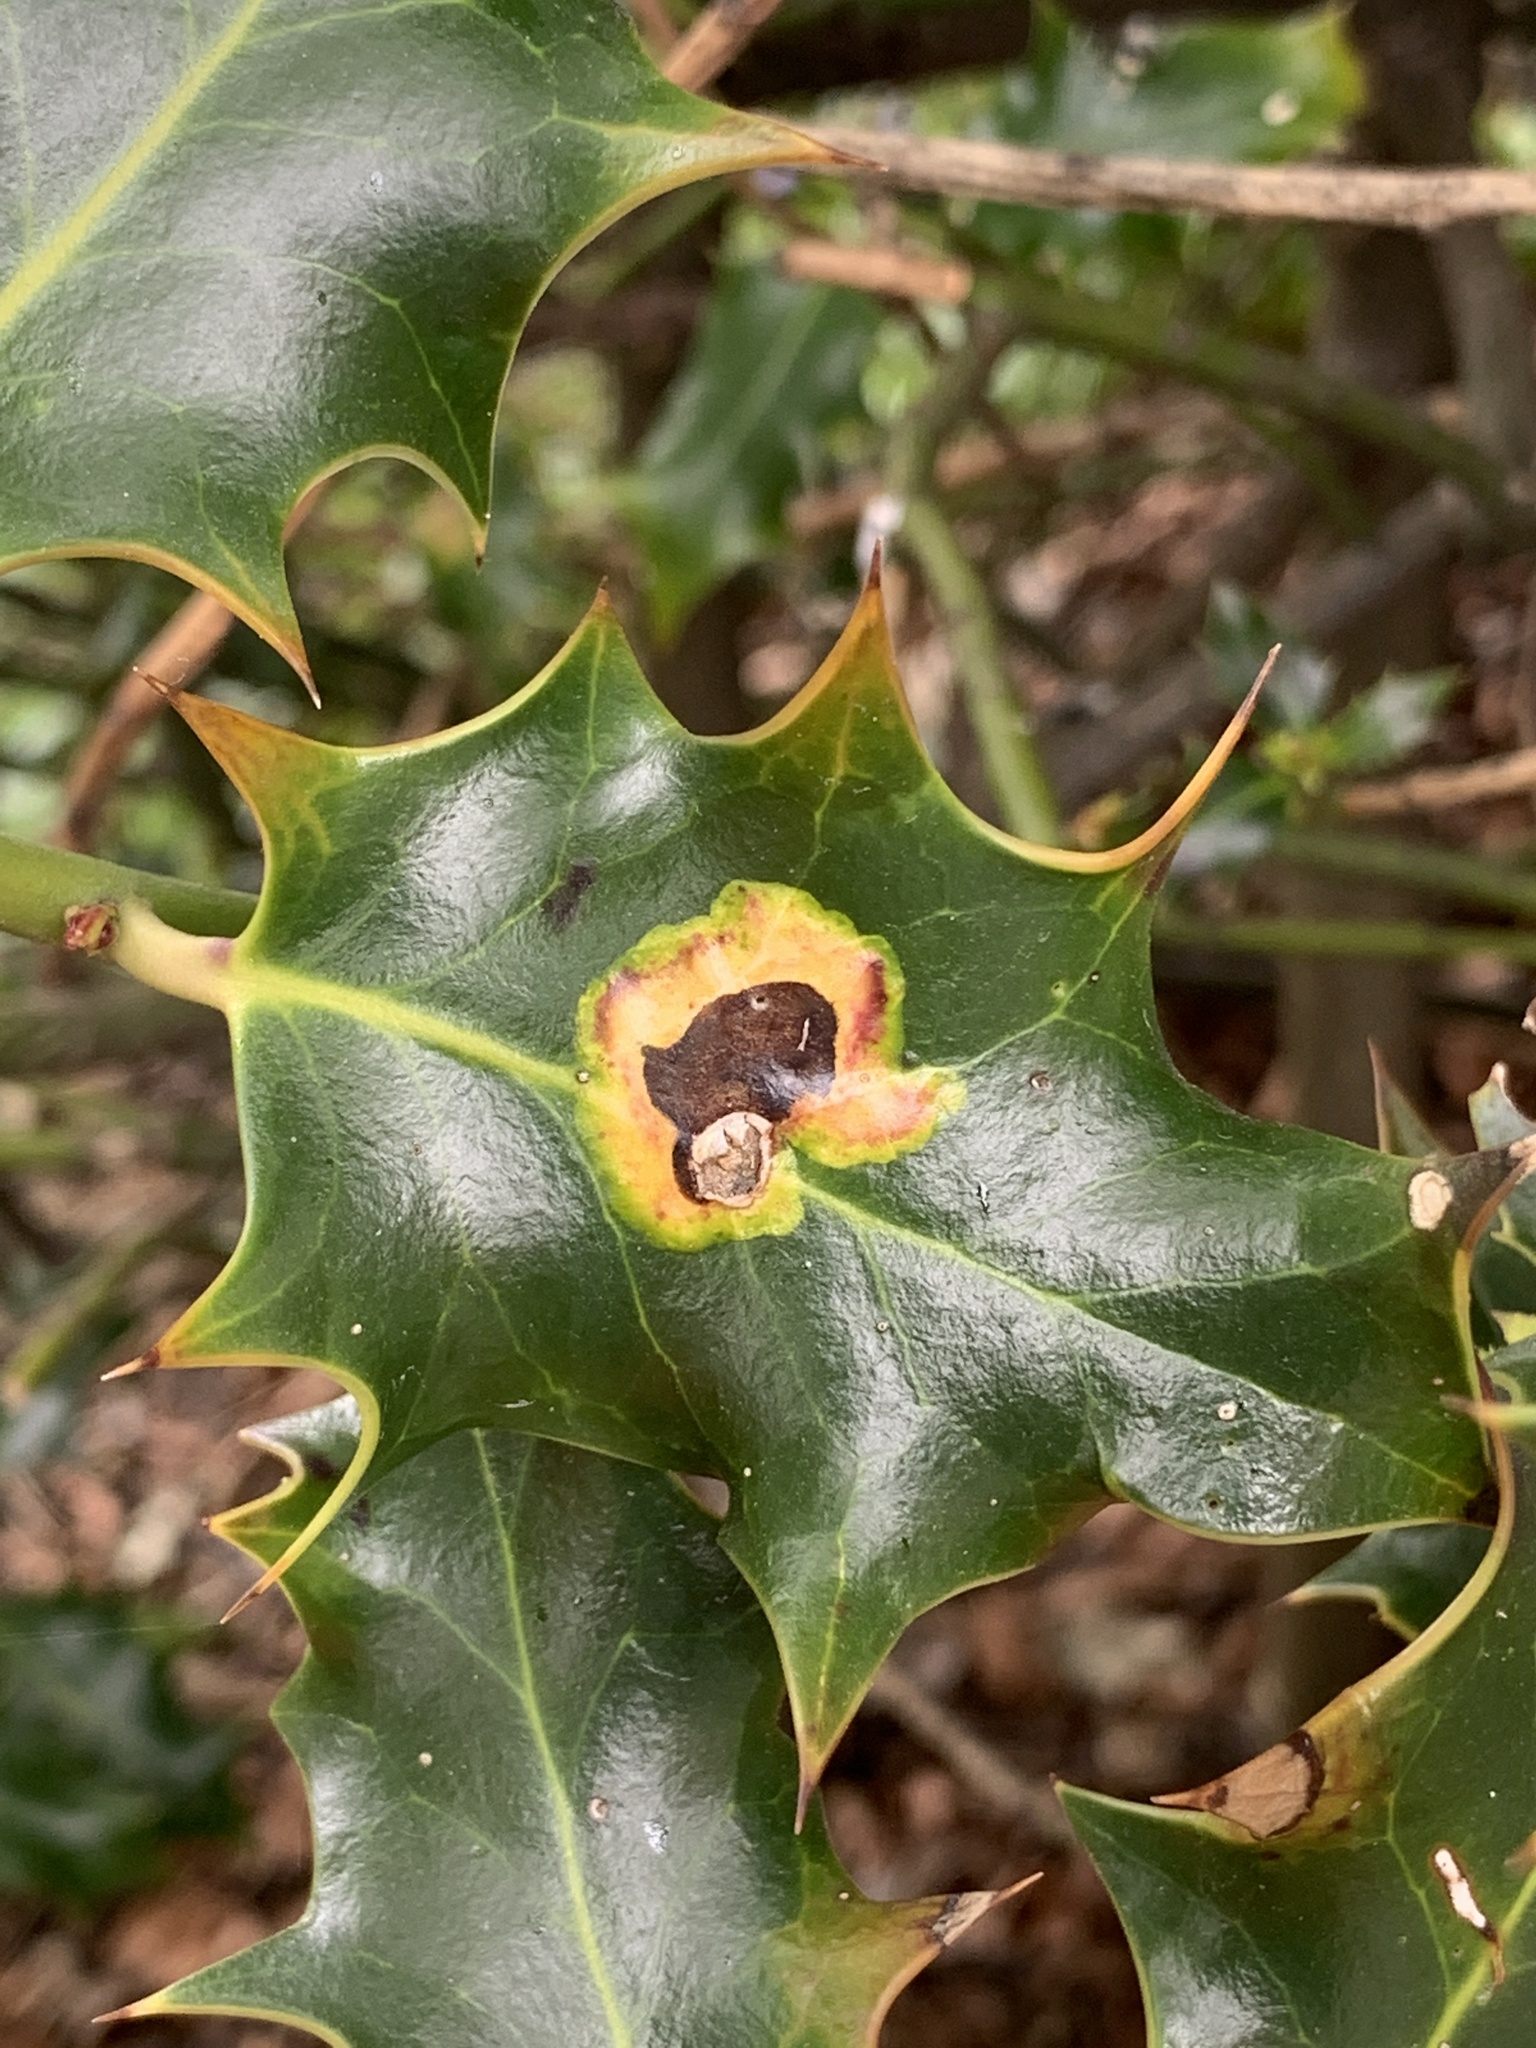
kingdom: Animalia
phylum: Arthropoda
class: Insecta
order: Diptera
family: Agromyzidae
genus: Phytomyza
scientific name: Phytomyza ilicis
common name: Holly leafminer
